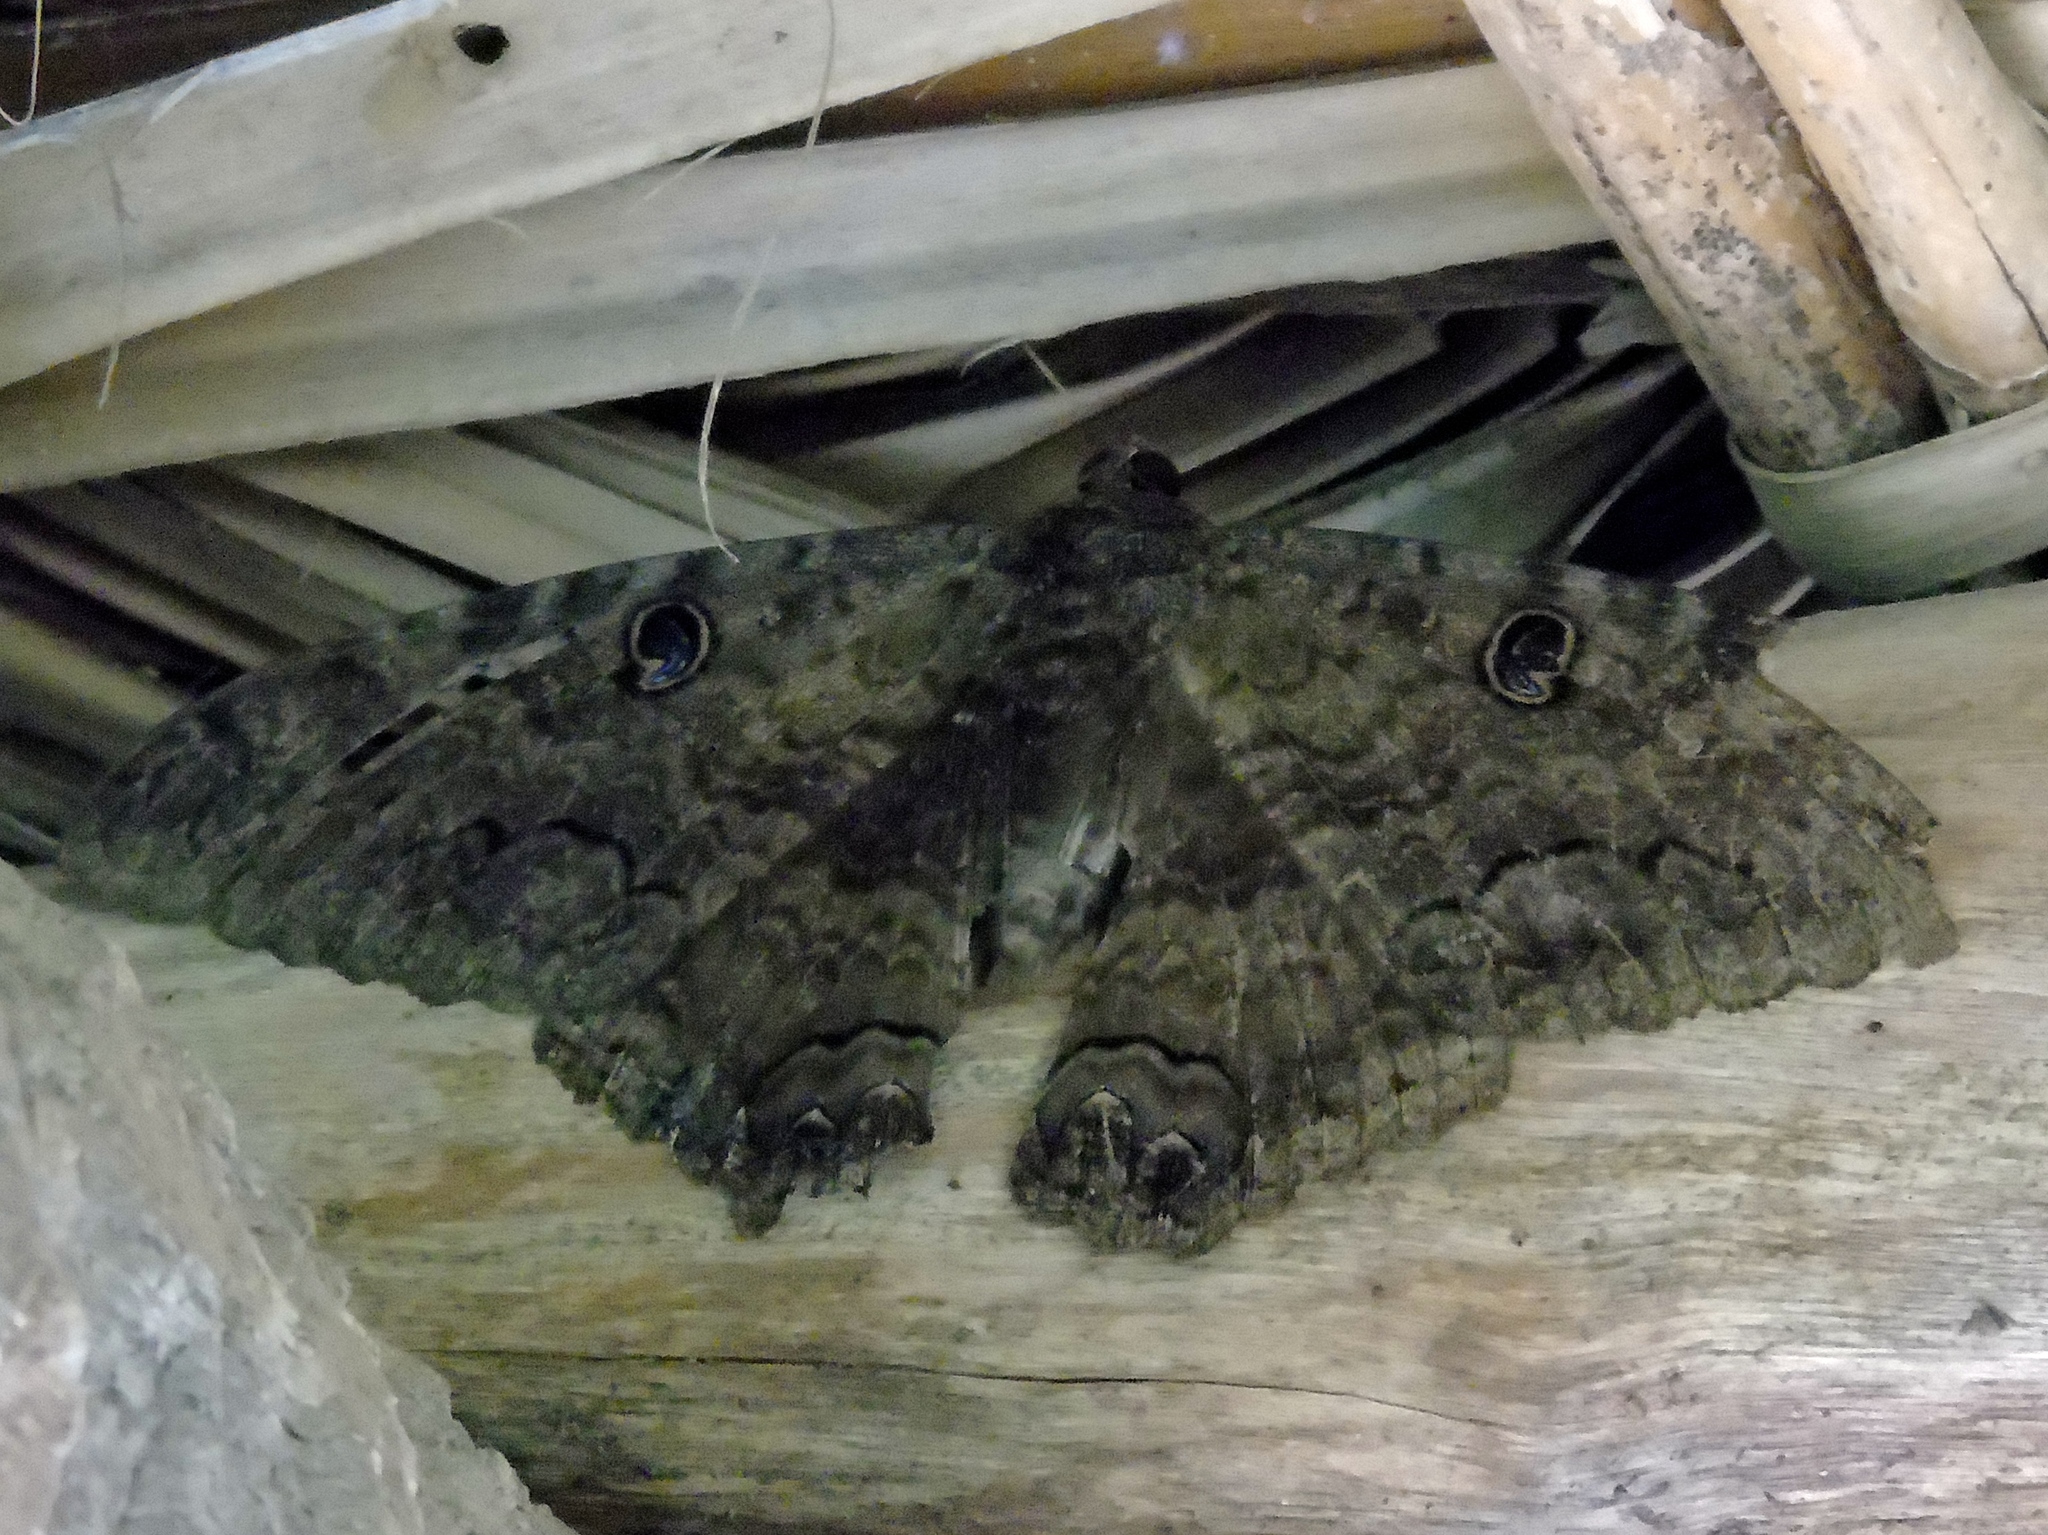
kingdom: Animalia
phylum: Arthropoda
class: Insecta
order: Lepidoptera
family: Erebidae
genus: Ascalapha
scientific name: Ascalapha odorata
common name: Black witch
